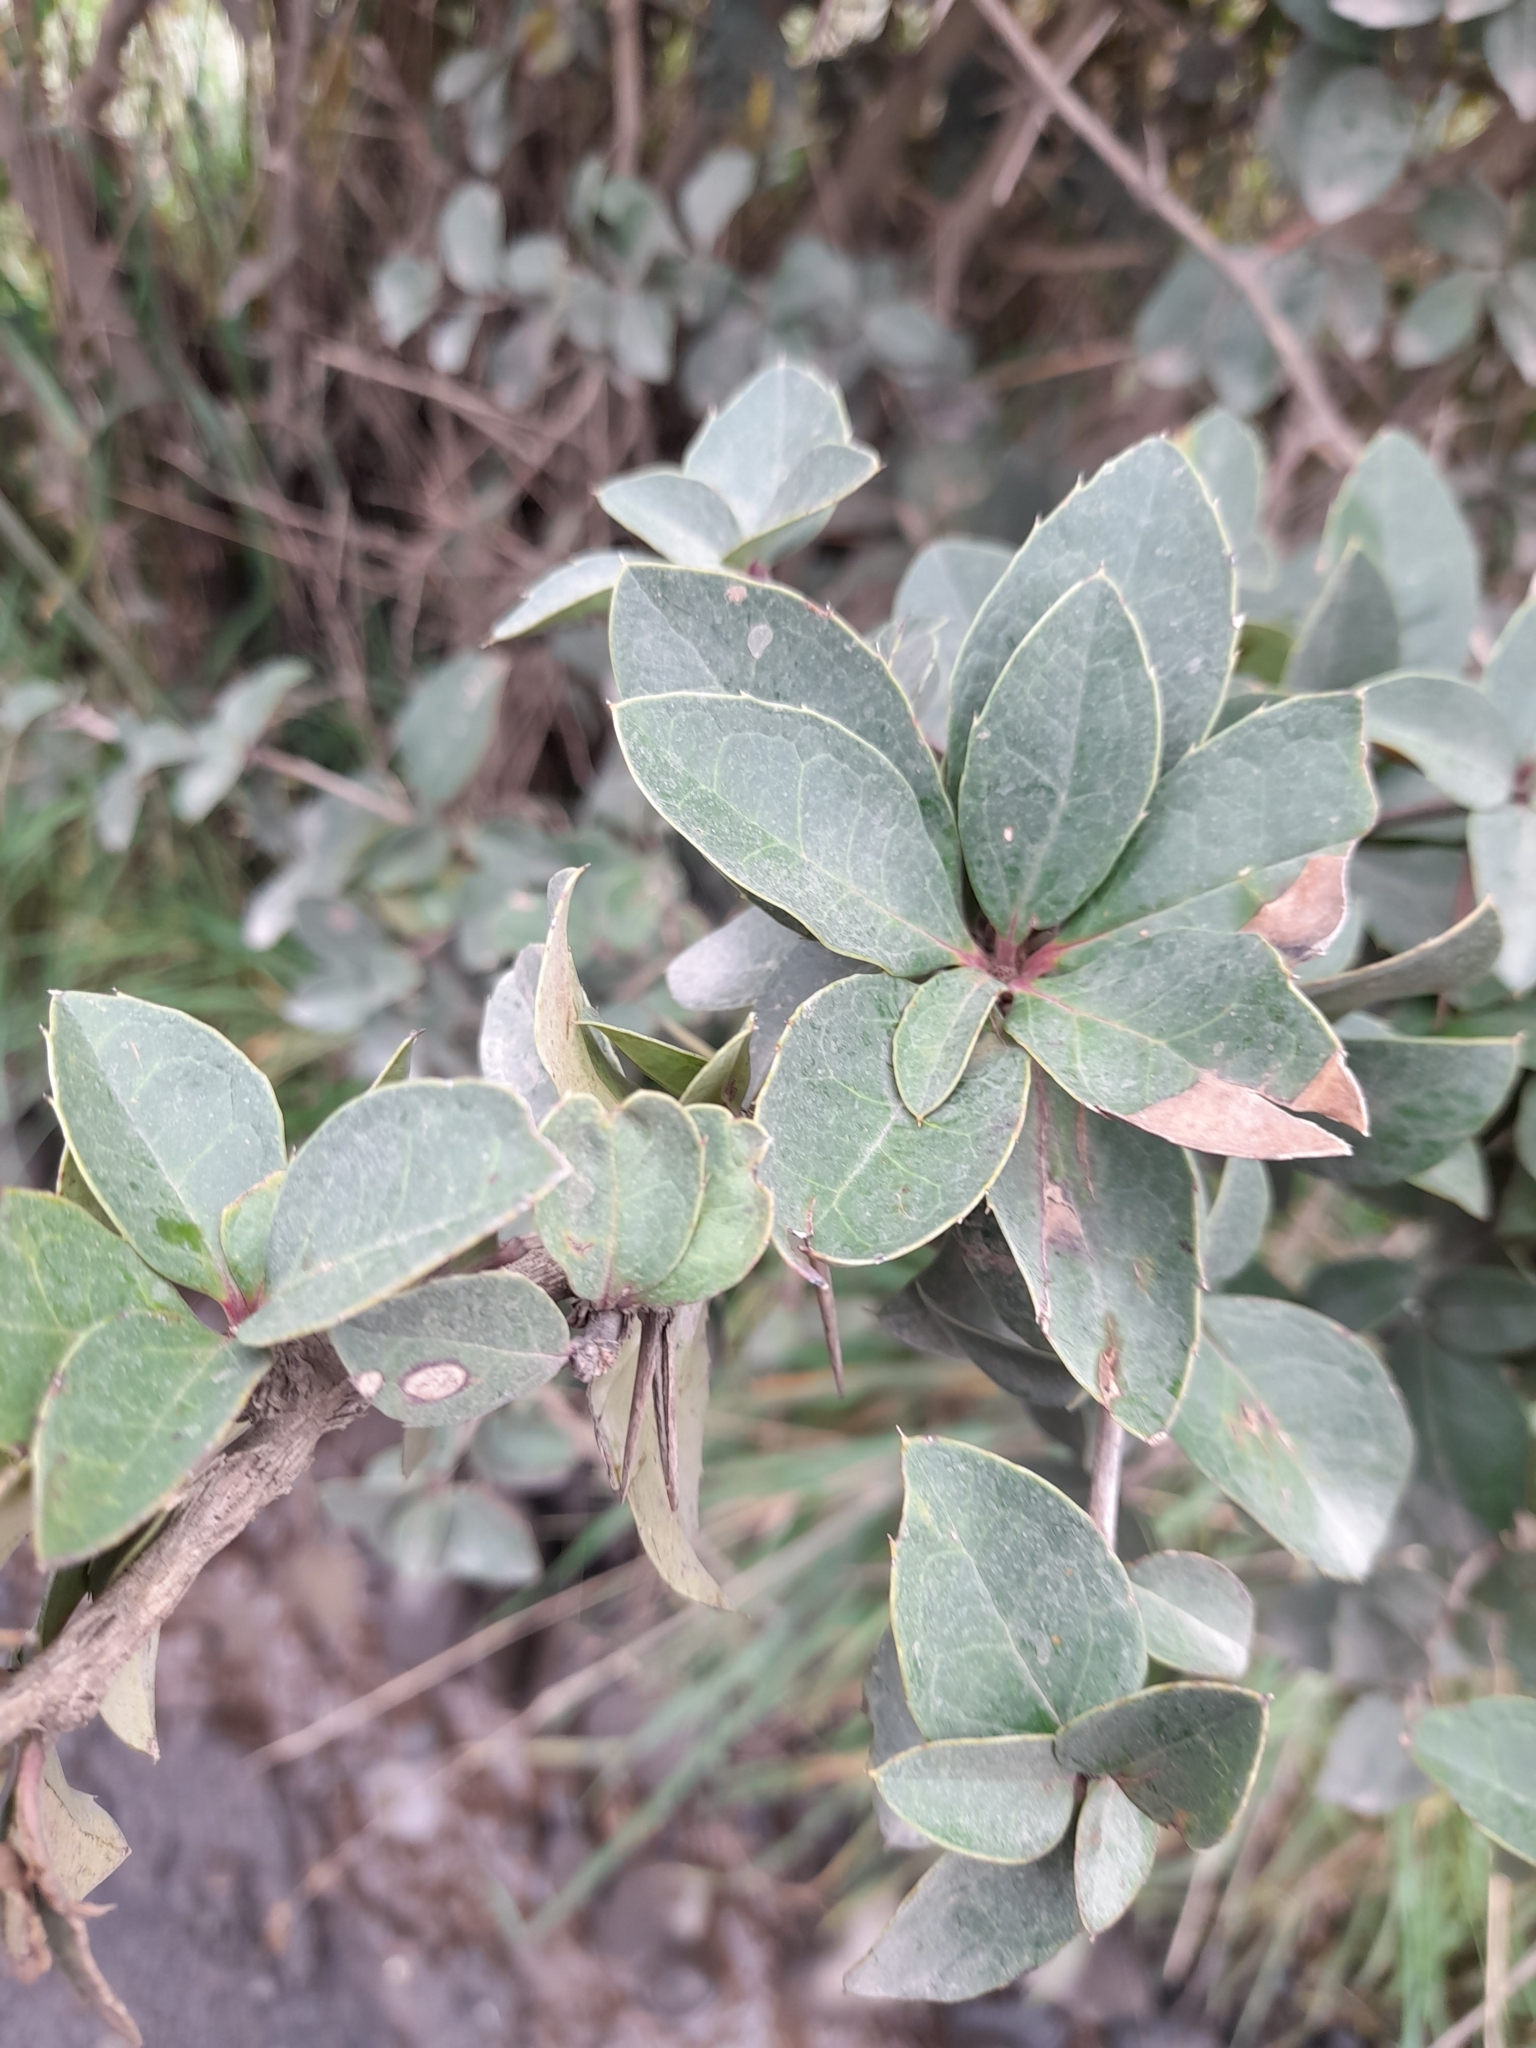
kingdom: Plantae
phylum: Tracheophyta
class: Magnoliopsida
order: Asterales
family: Asteraceae
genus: Archidasyphyllum
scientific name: Archidasyphyllum diacanthoides
